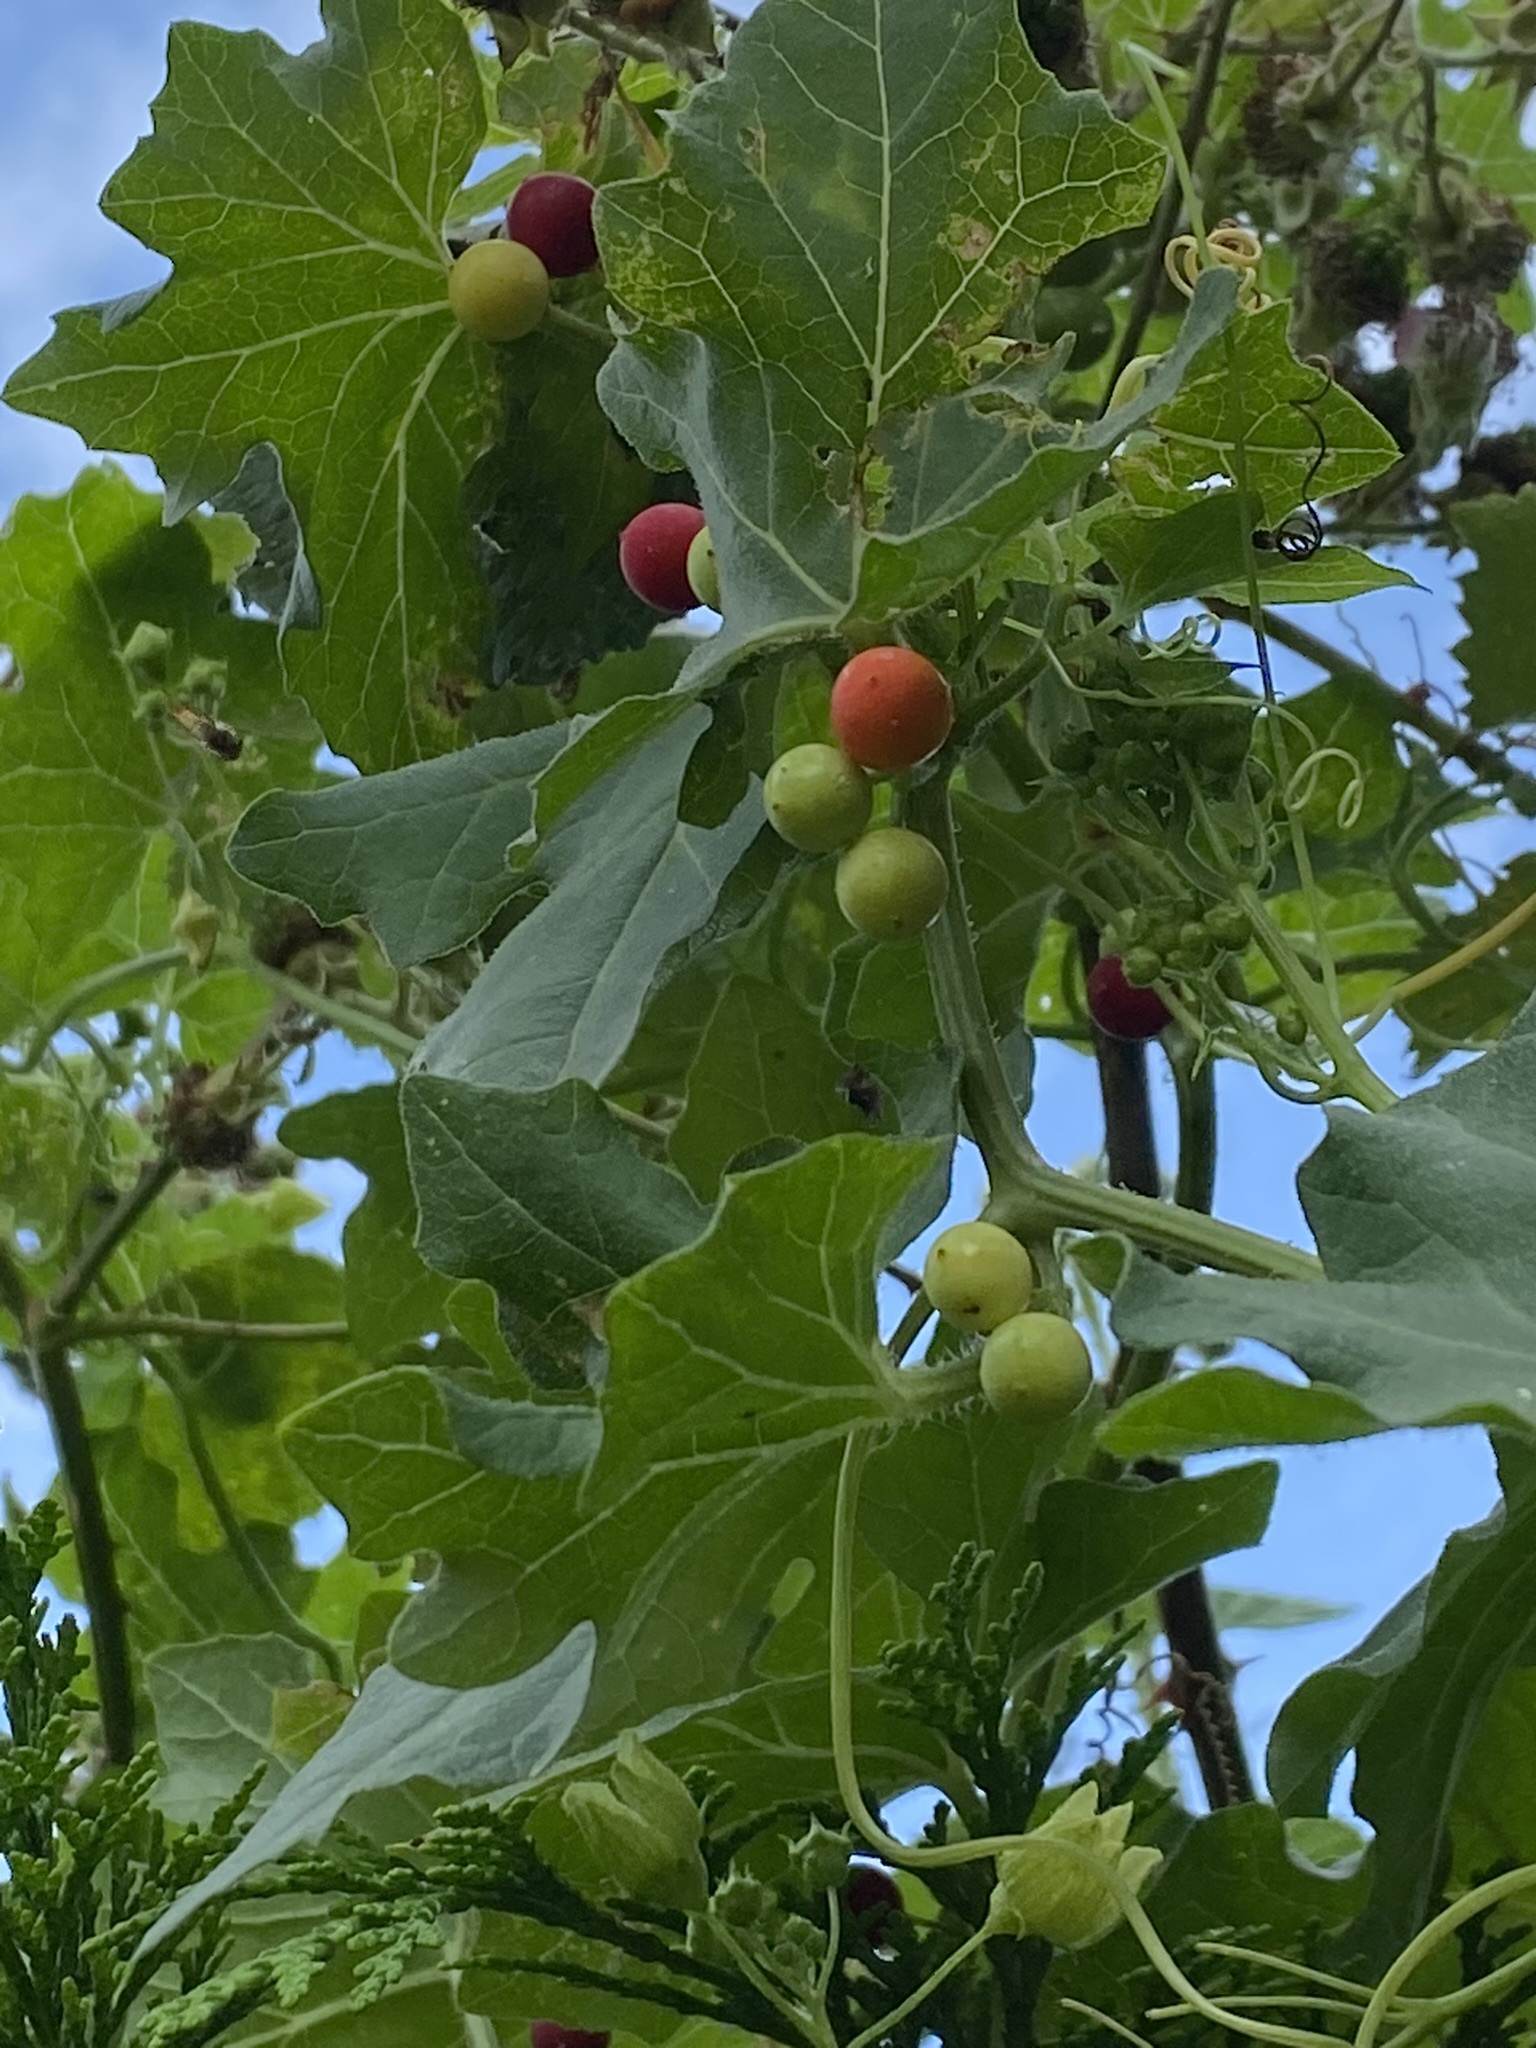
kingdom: Plantae
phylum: Tracheophyta
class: Magnoliopsida
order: Cucurbitales
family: Cucurbitaceae
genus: Bryonia
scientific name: Bryonia dioica
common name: White bryony
